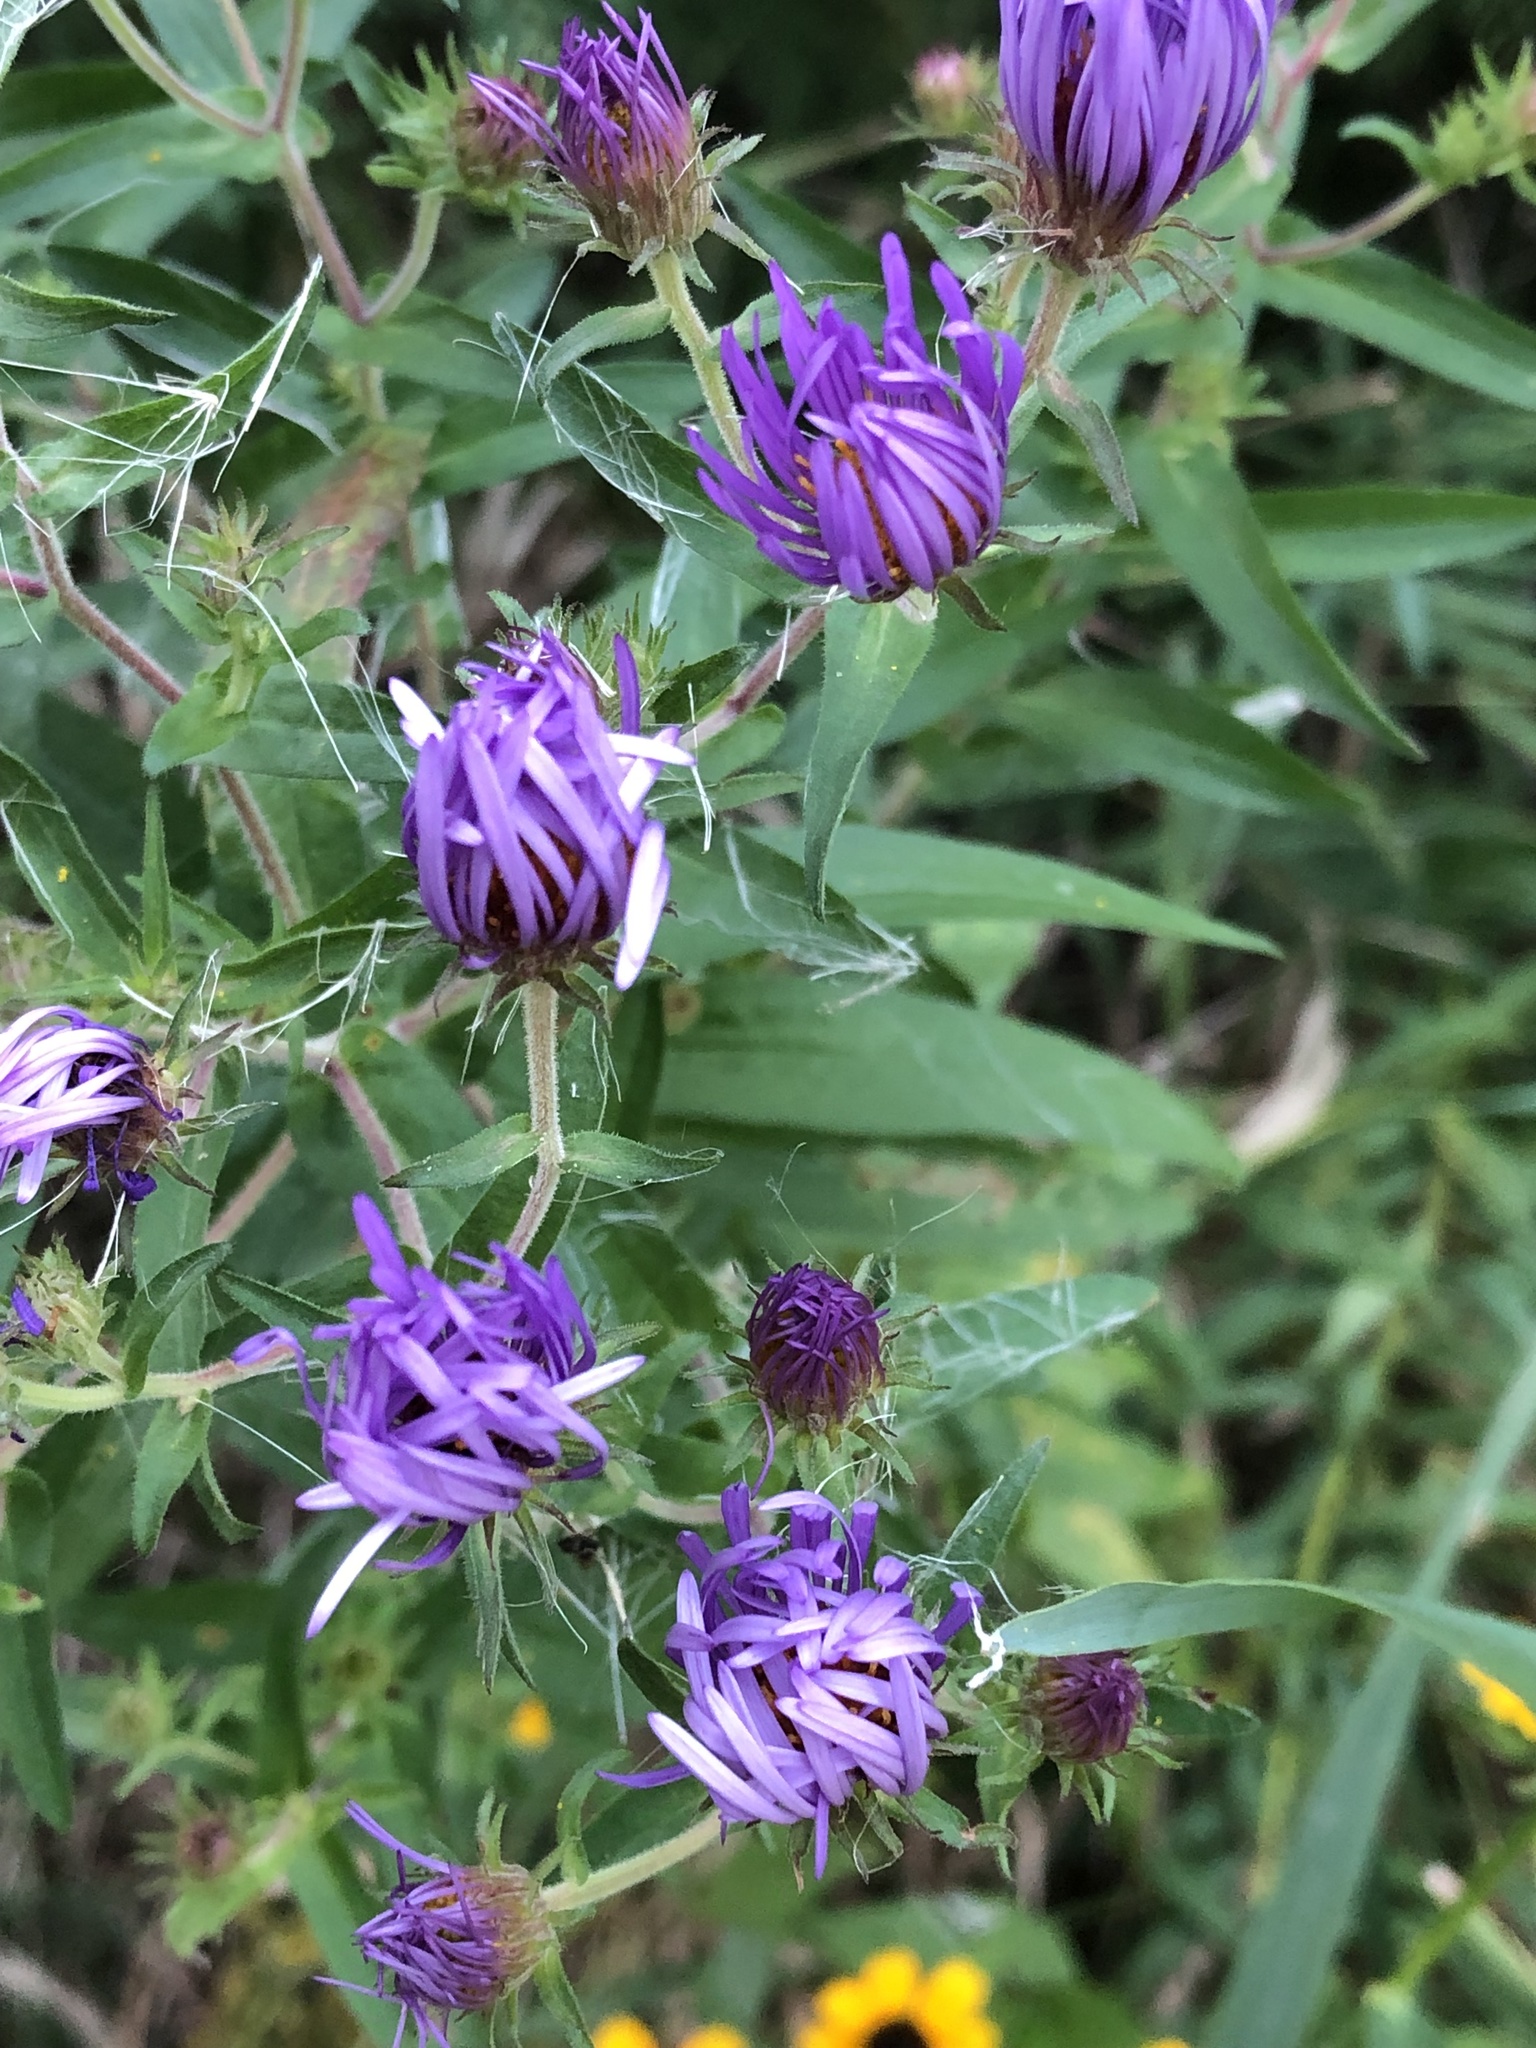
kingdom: Plantae
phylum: Tracheophyta
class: Magnoliopsida
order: Asterales
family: Asteraceae
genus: Symphyotrichum
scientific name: Symphyotrichum novae-angliae
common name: Michaelmas daisy
